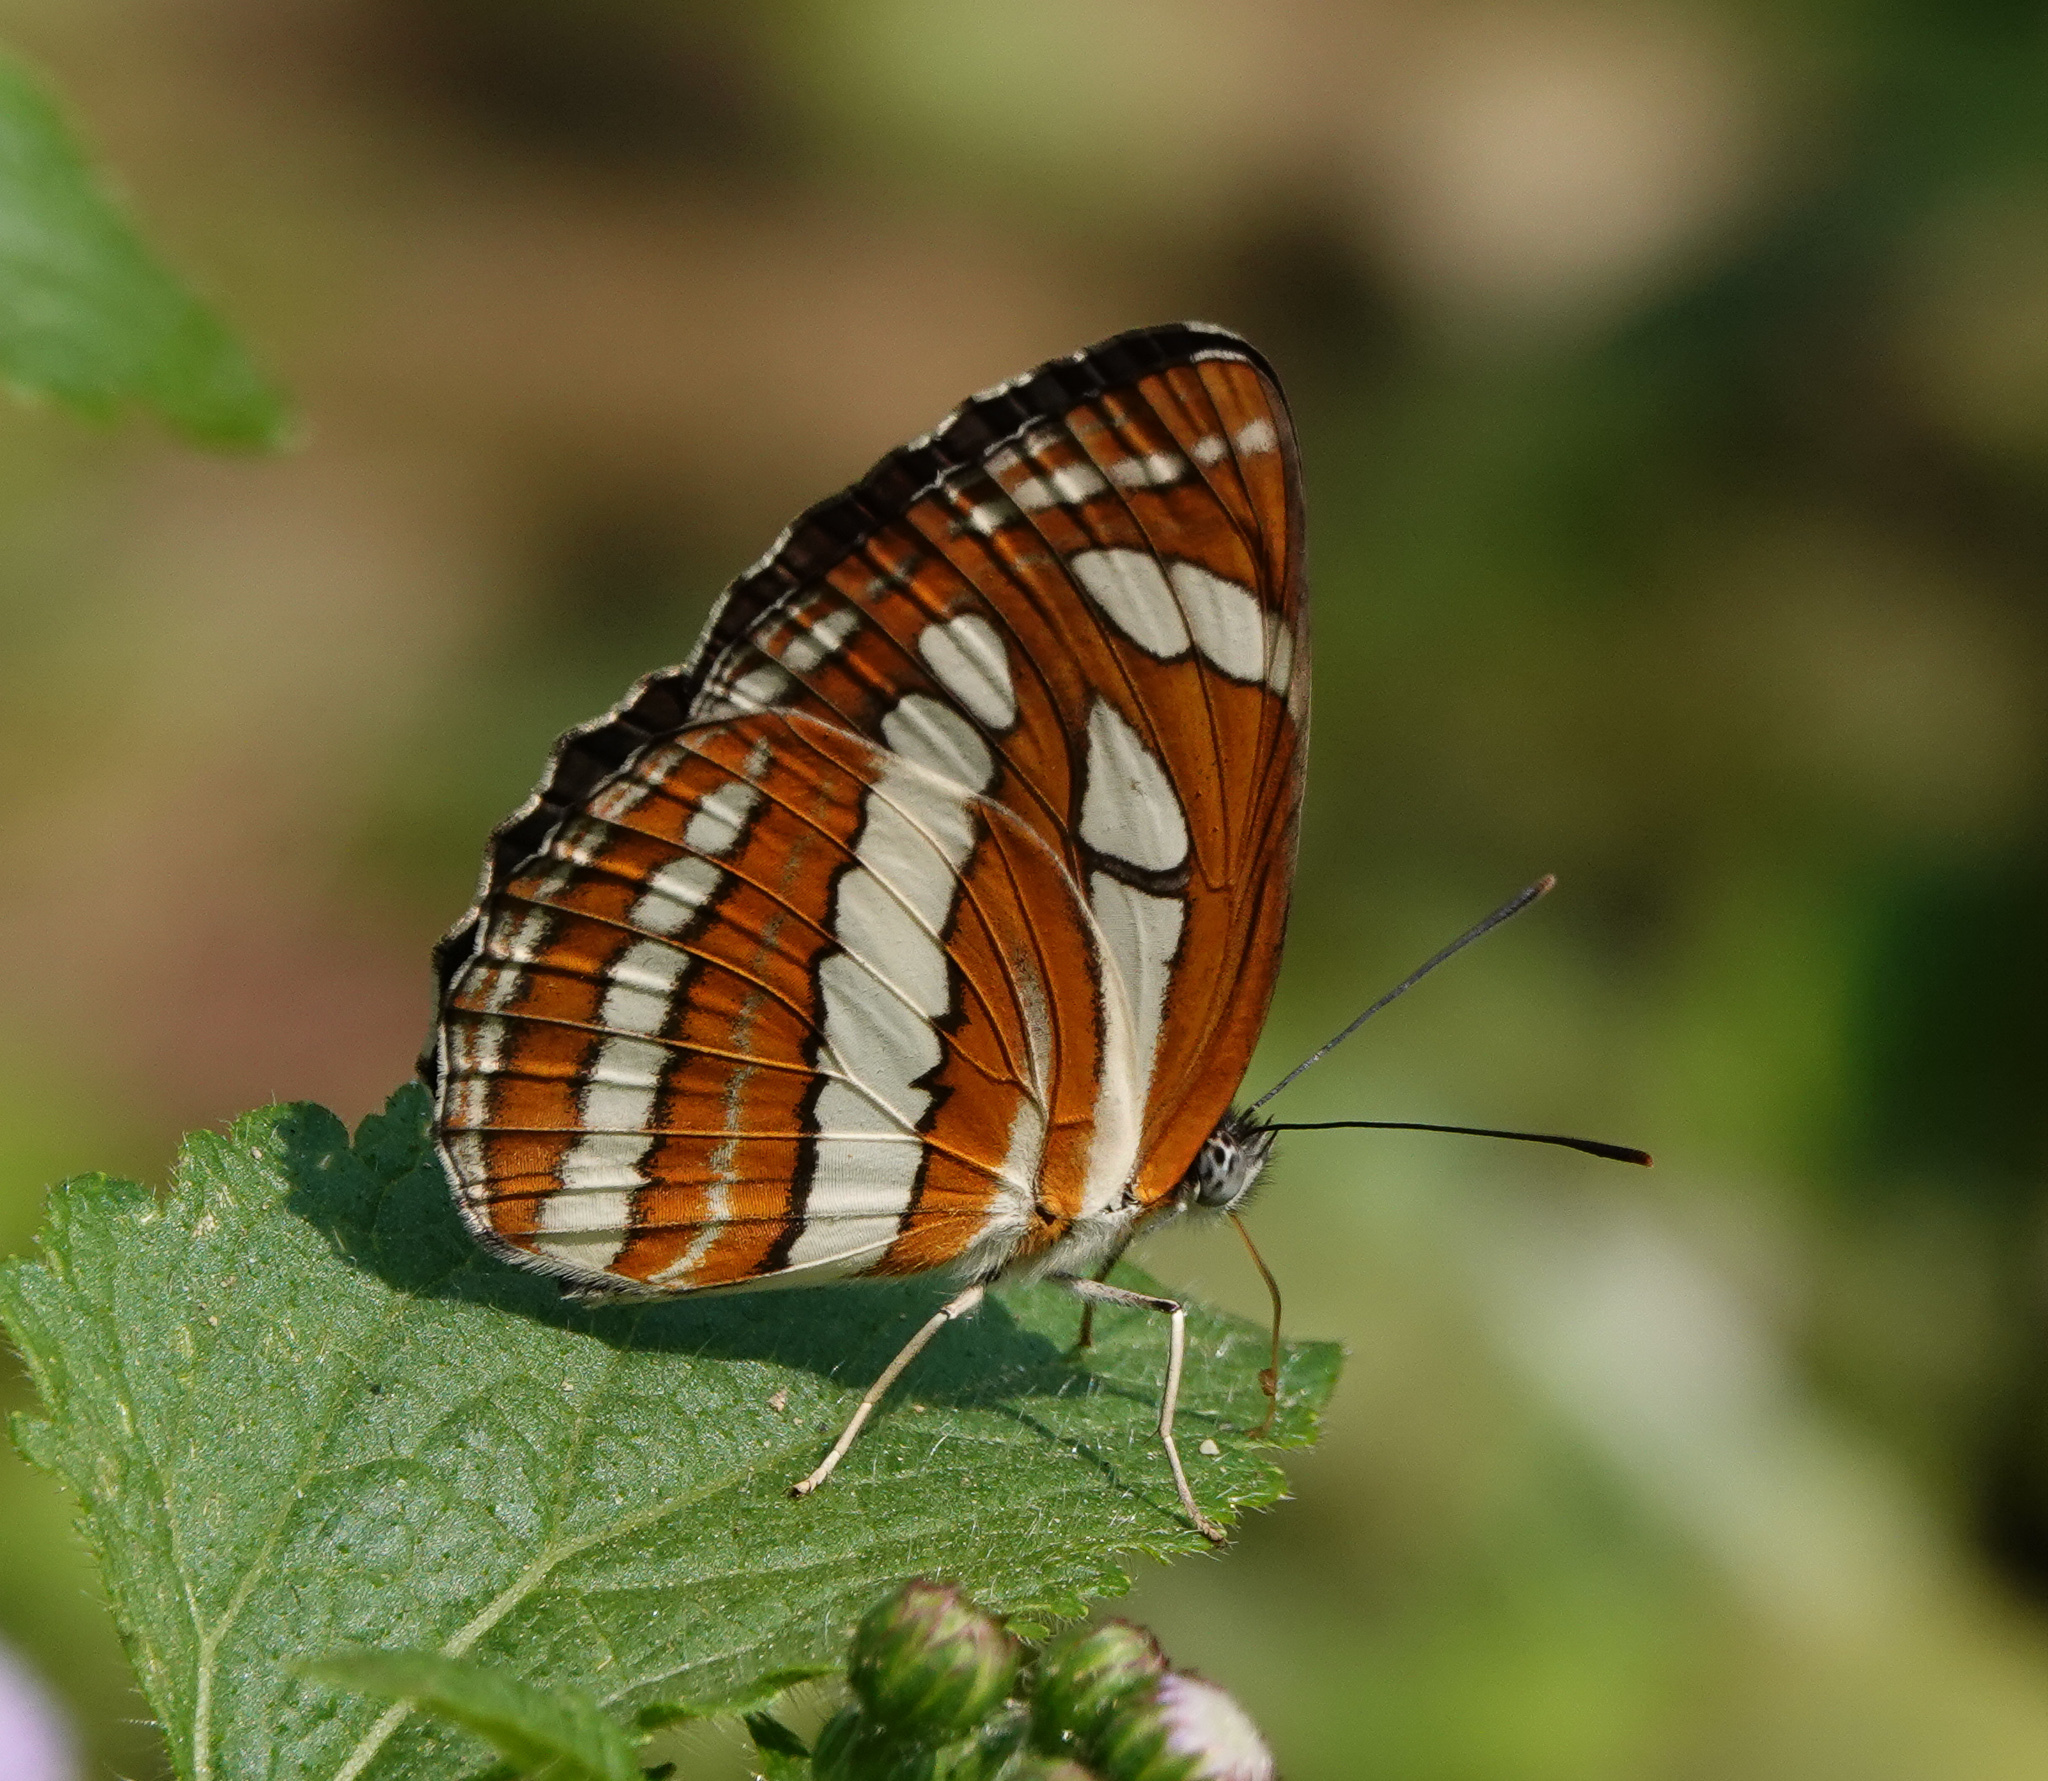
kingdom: Animalia
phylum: Arthropoda
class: Insecta
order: Lepidoptera
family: Nymphalidae
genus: Neptis
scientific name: Neptis hylas
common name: Common sailer
